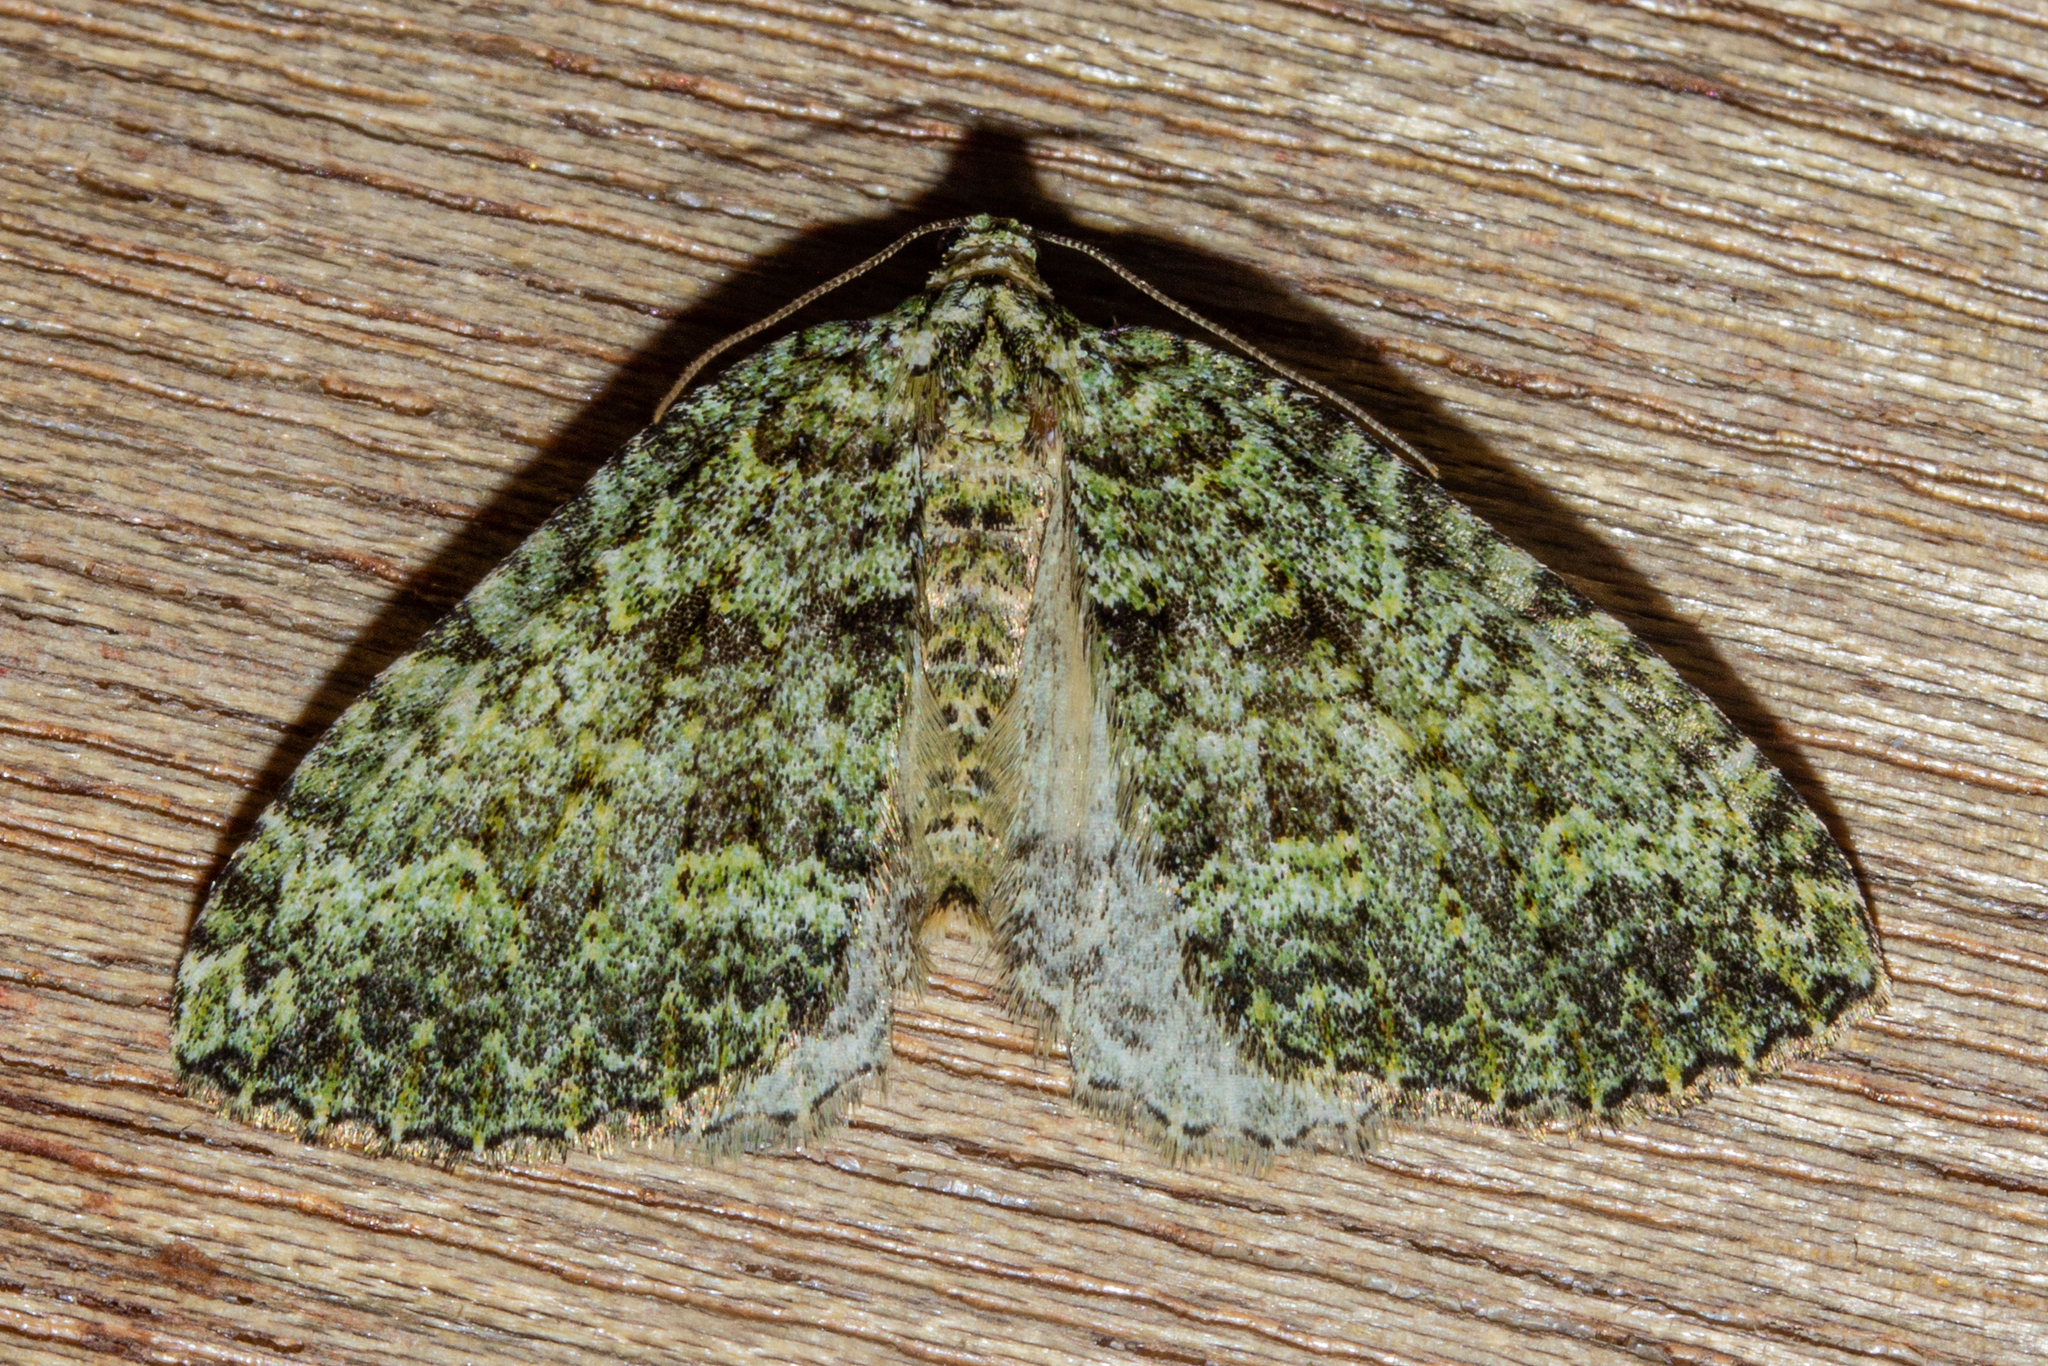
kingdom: Animalia
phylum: Arthropoda
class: Insecta
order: Lepidoptera
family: Geometridae
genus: Austrocidaria
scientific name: Austrocidaria callichlora
